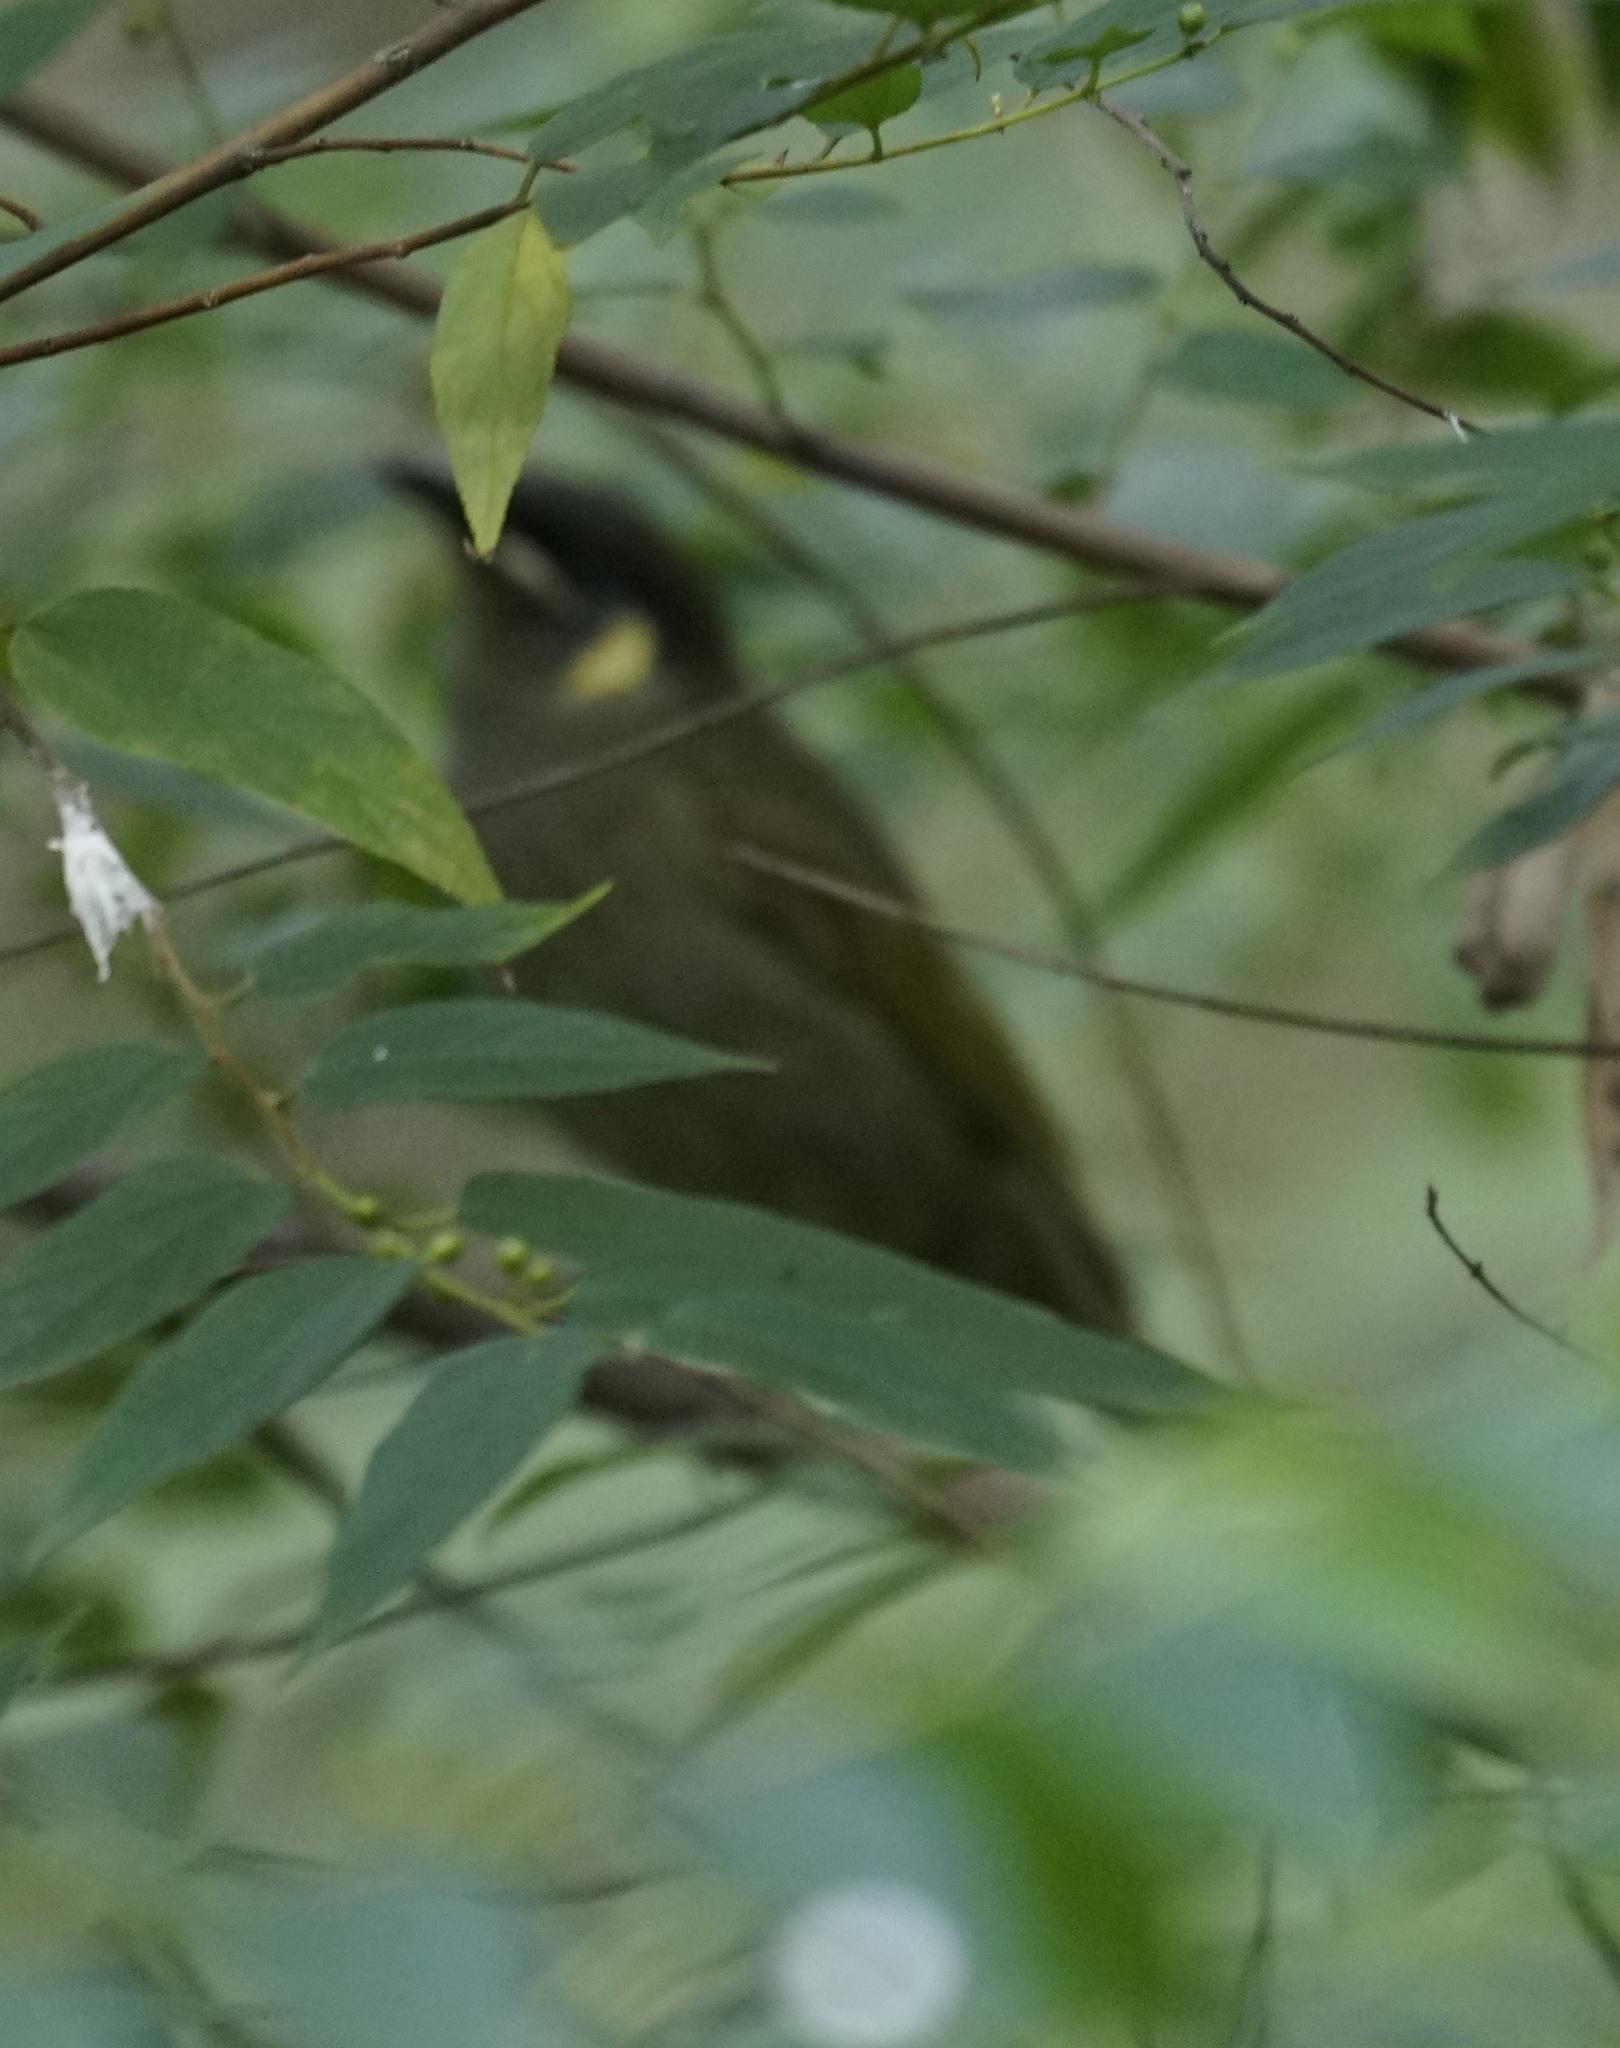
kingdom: Animalia
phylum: Chordata
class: Aves
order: Passeriformes
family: Meliphagidae
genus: Meliphaga
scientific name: Meliphaga lewinii
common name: Lewin's honeyeater
